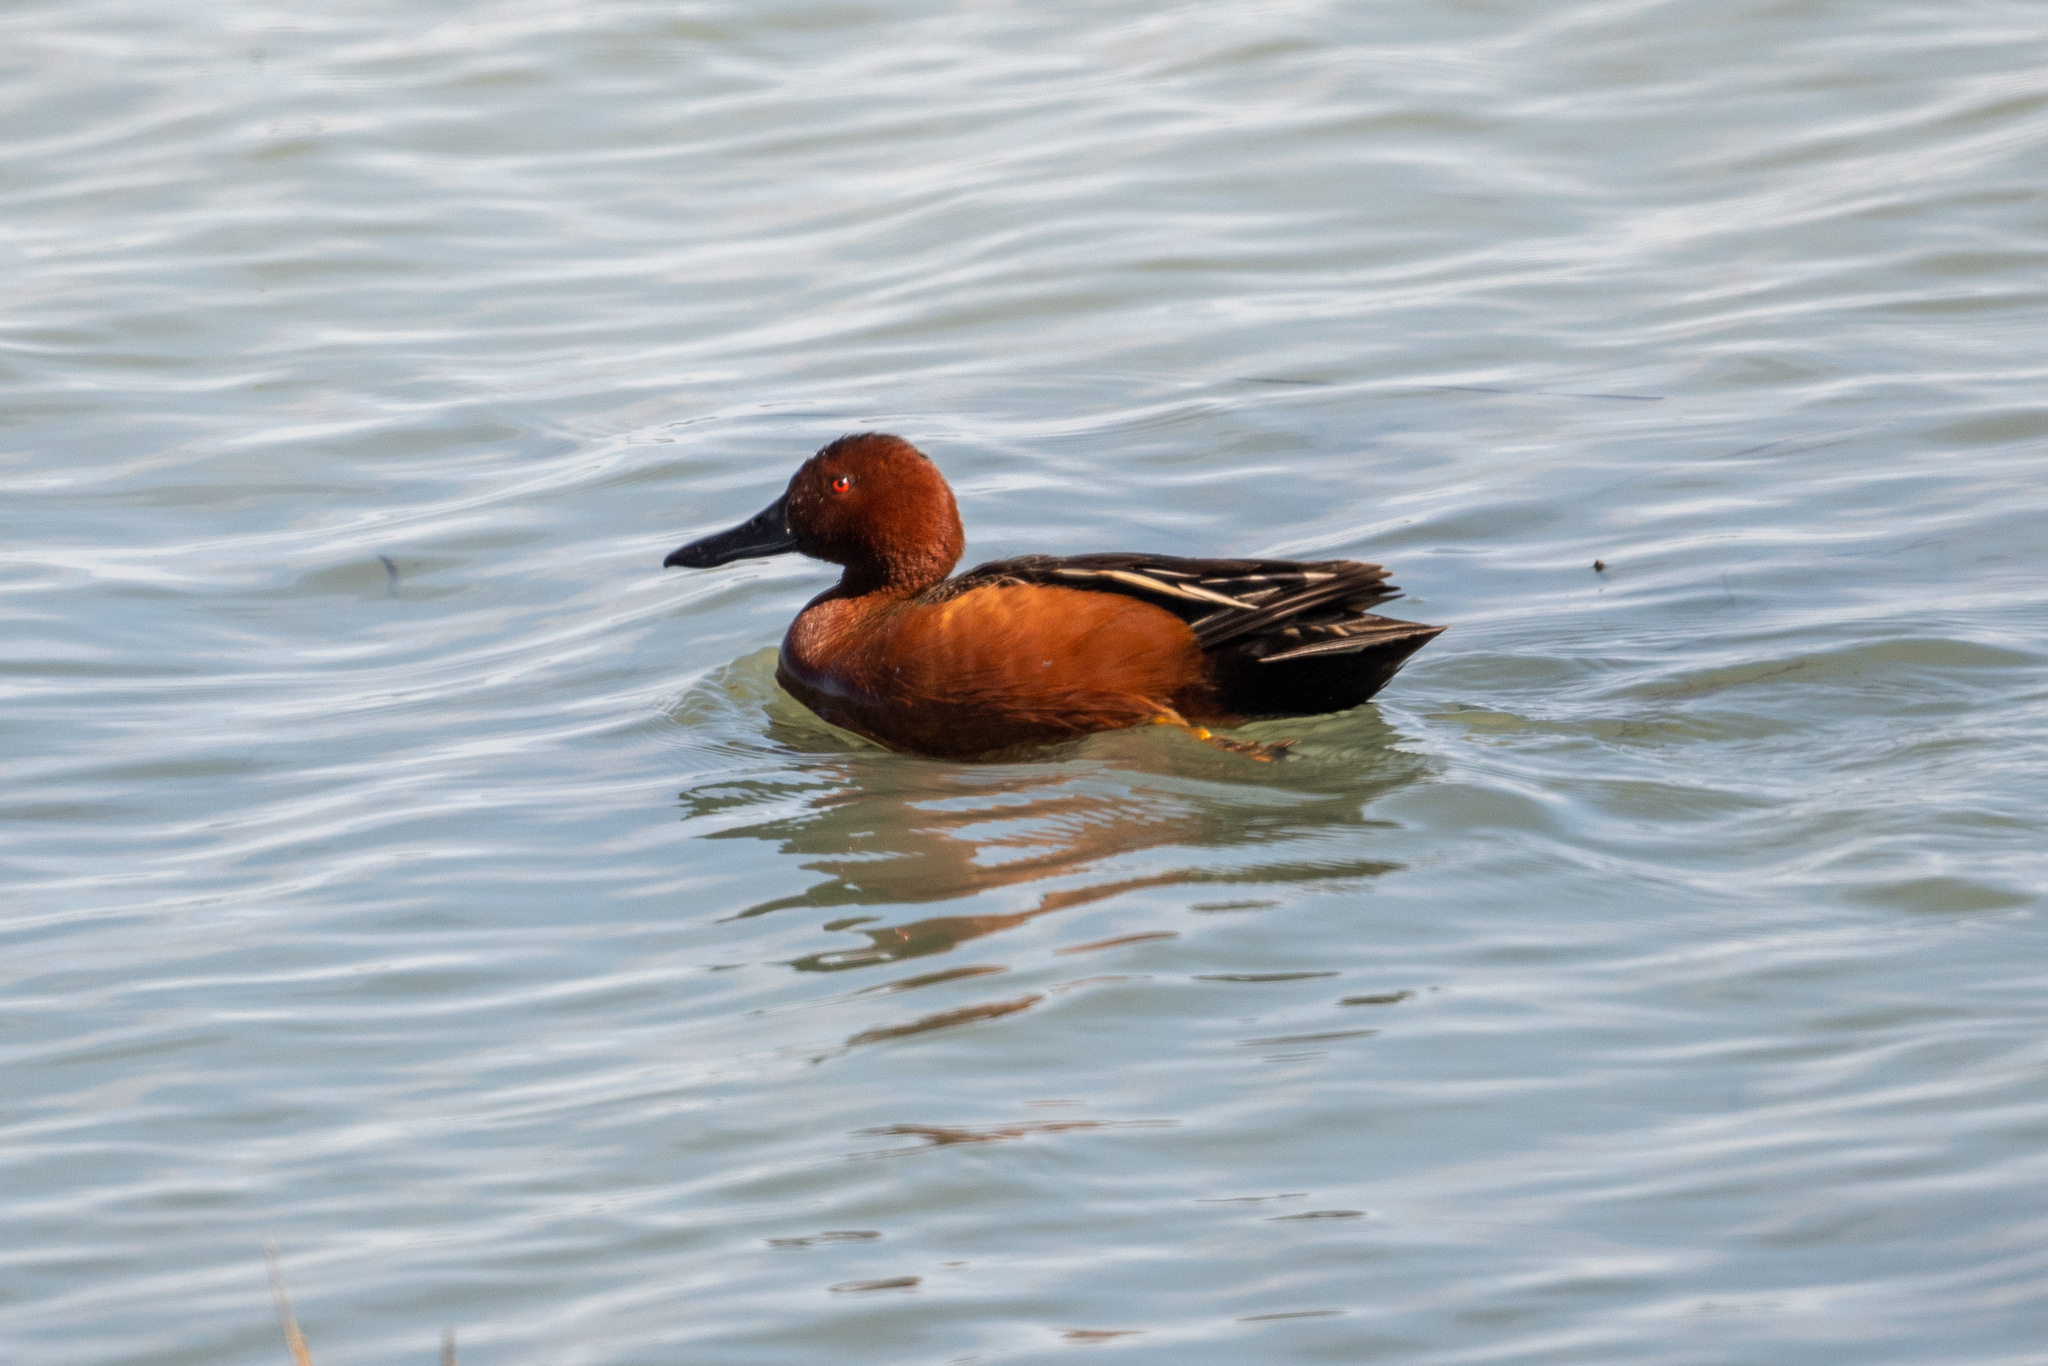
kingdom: Animalia
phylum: Chordata
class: Aves
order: Anseriformes
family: Anatidae
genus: Spatula
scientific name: Spatula cyanoptera
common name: Cinnamon teal
